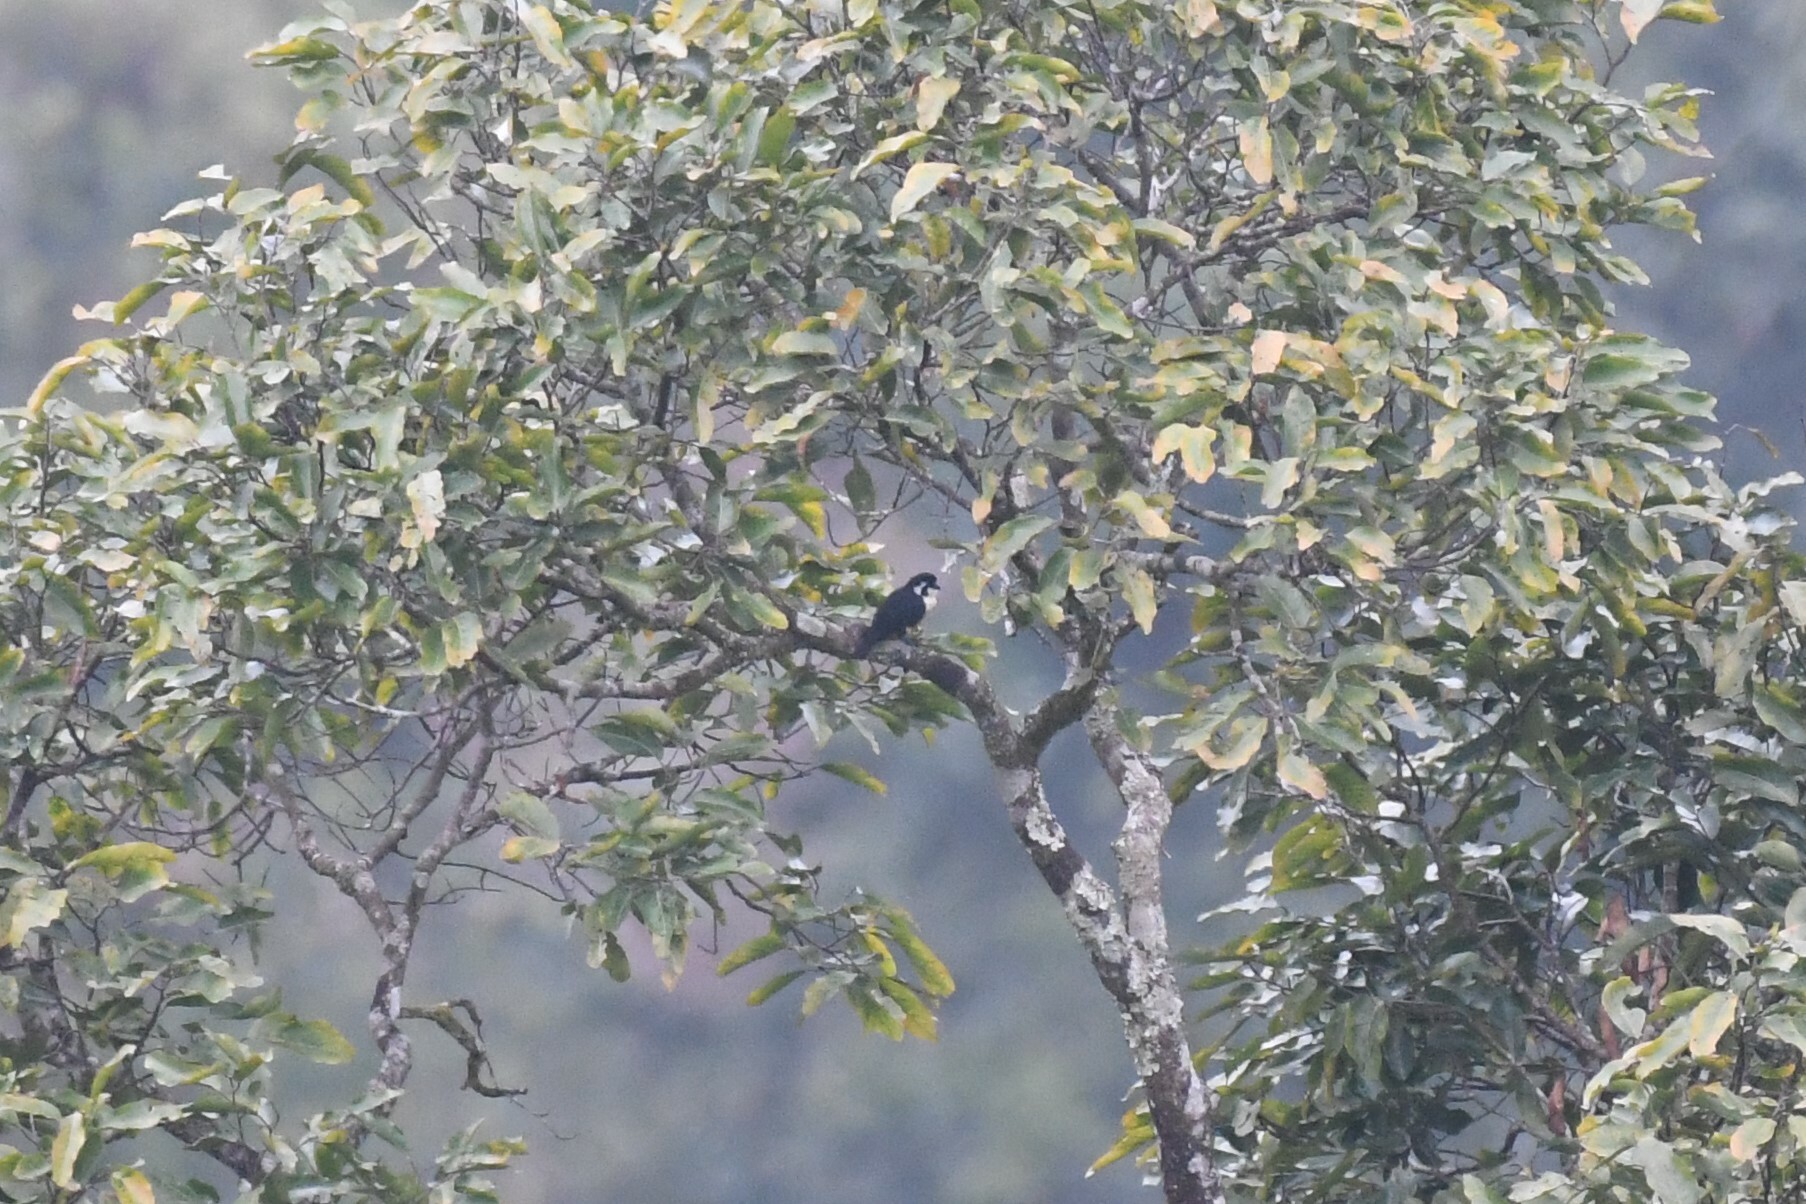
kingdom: Animalia
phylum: Chordata
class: Aves
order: Falconiformes
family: Falconidae
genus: Microhierax
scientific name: Microhierax fringillarius
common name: Black-thighed falconet
